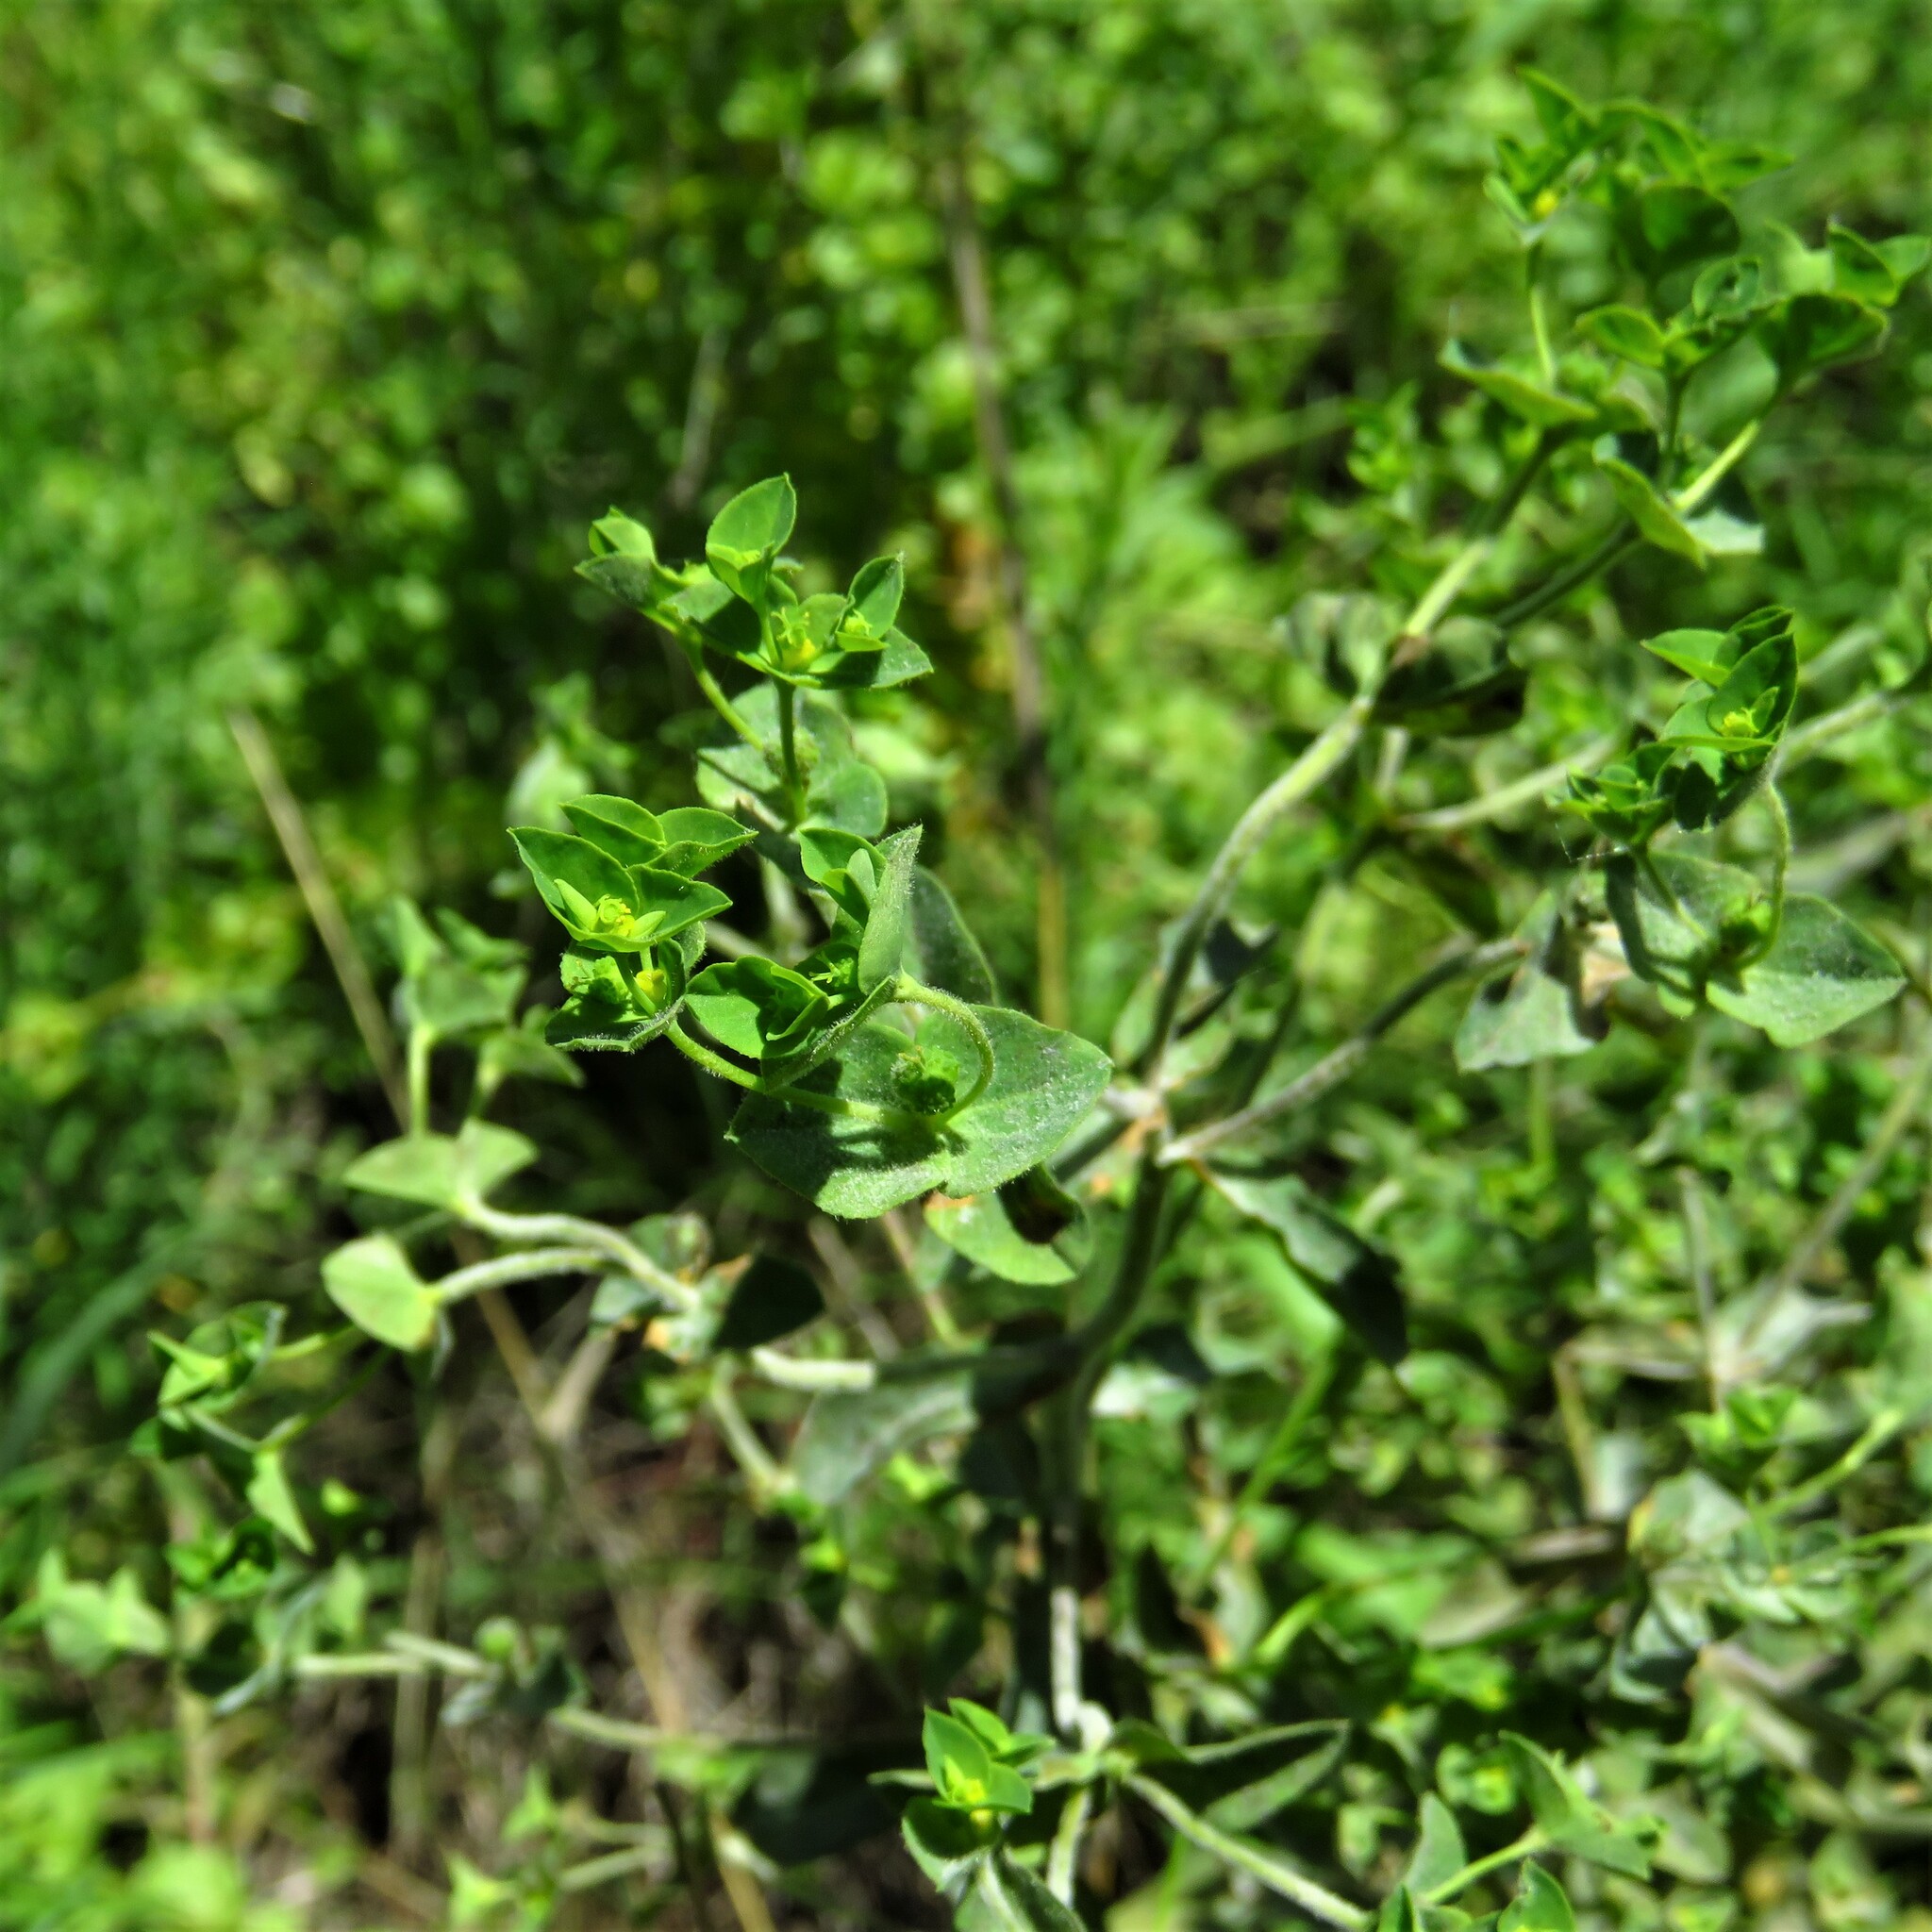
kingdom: Plantae
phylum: Tracheophyta
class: Magnoliopsida
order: Malpighiales
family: Euphorbiaceae
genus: Euphorbia
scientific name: Euphorbia spathulata
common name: Blunt spurge
